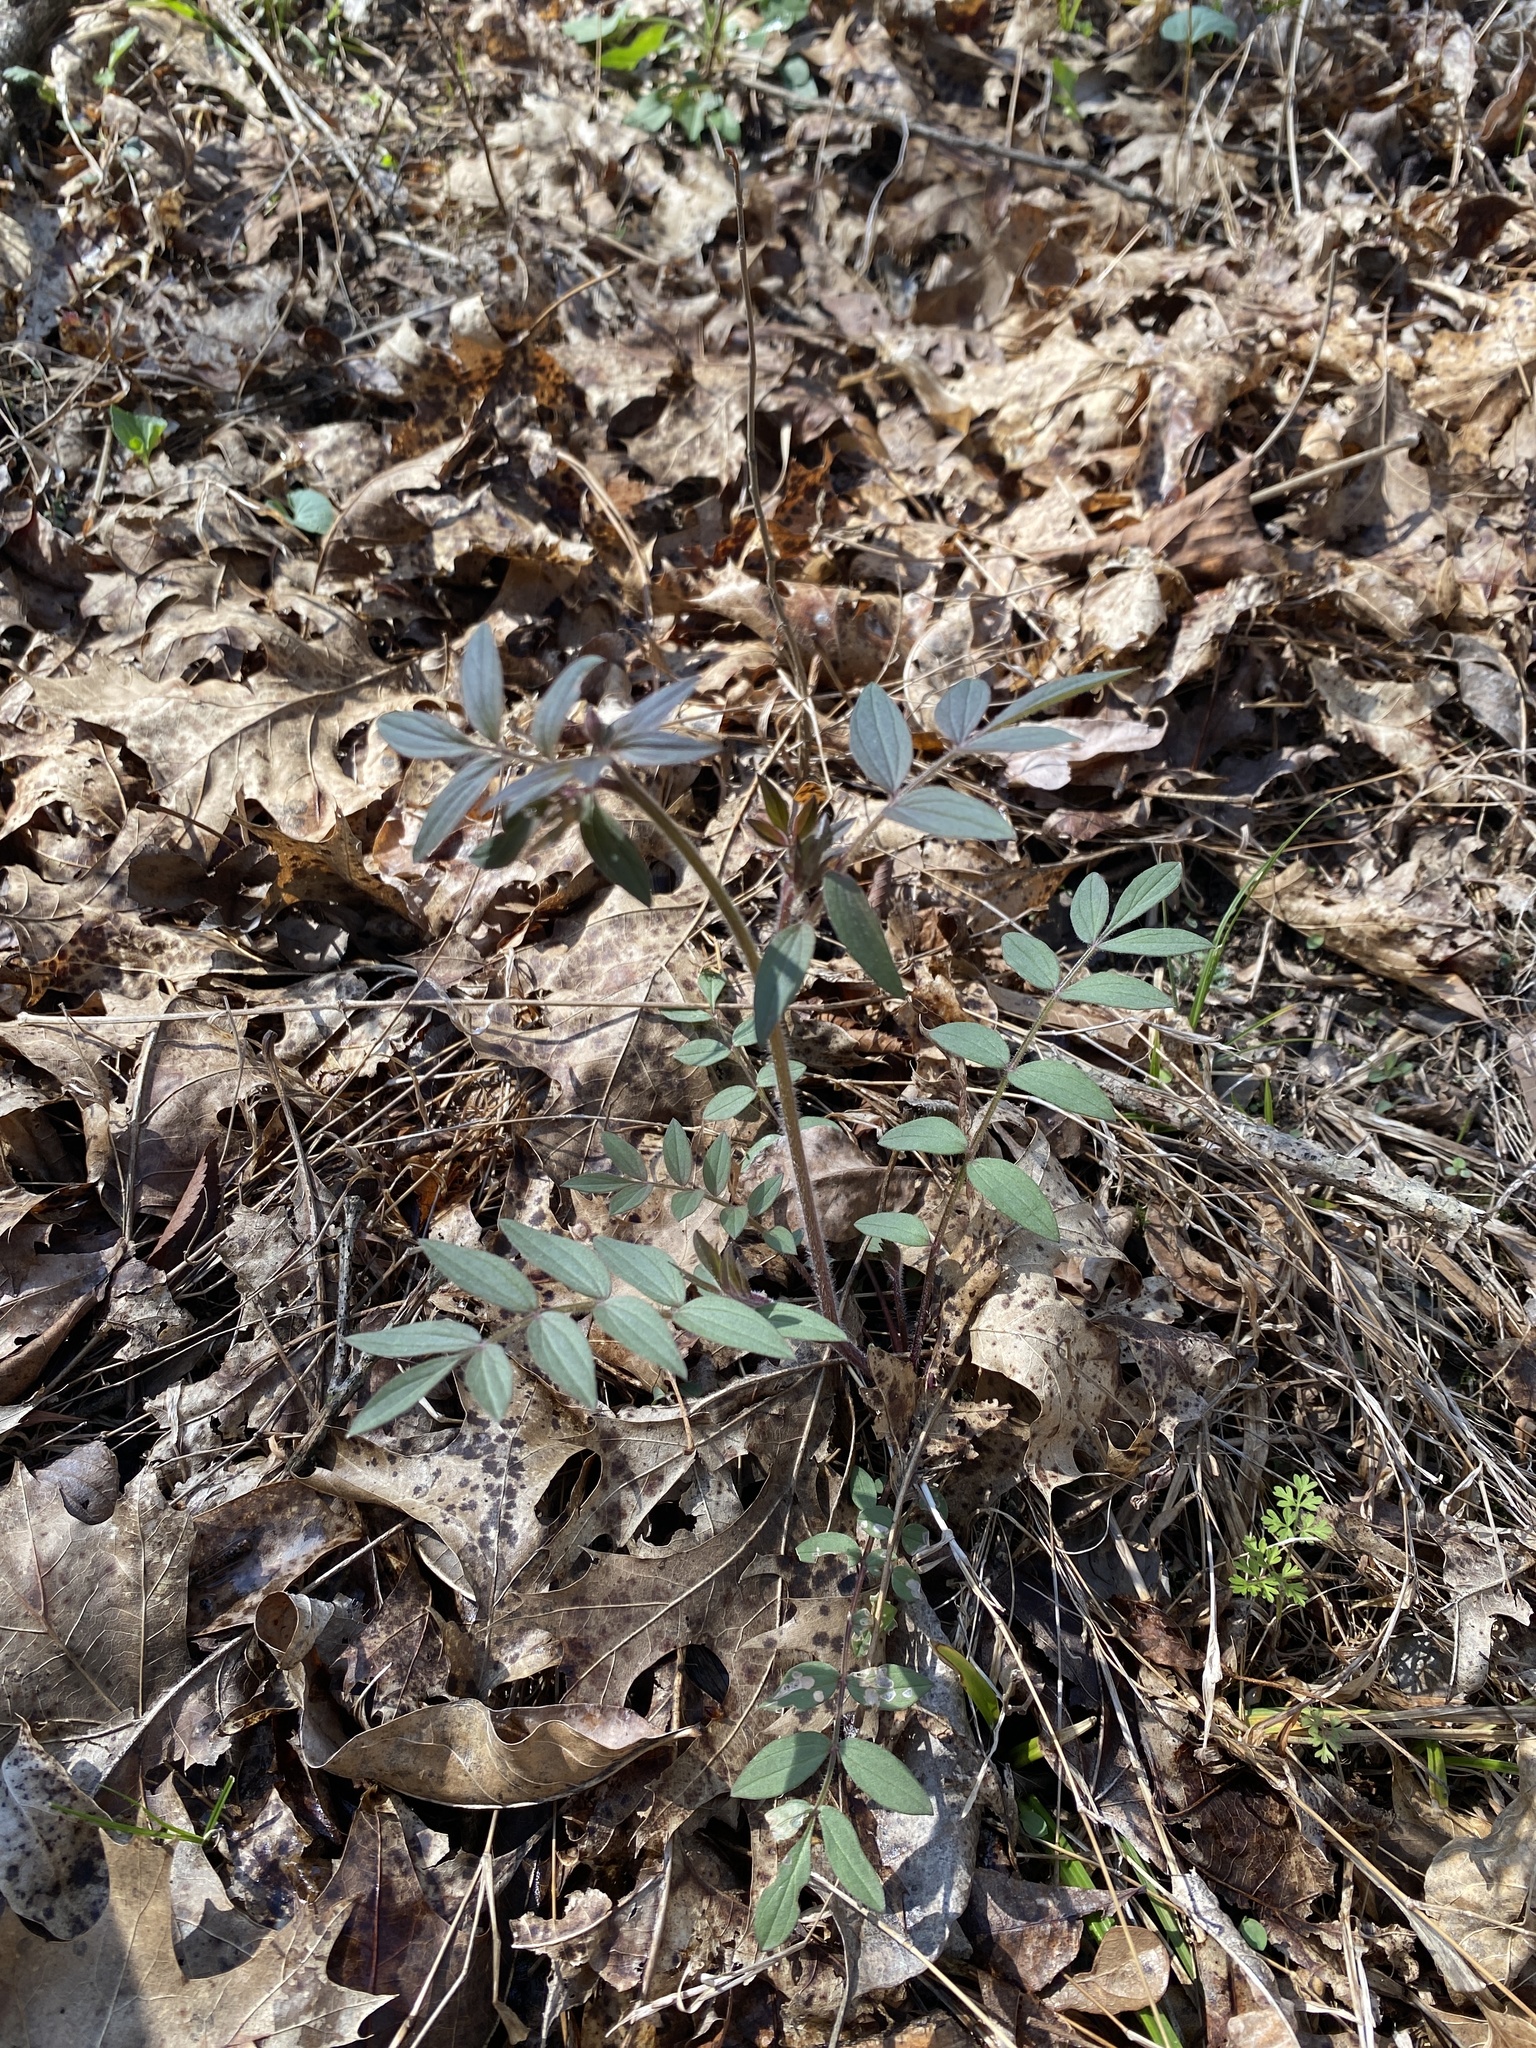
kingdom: Plantae
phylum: Tracheophyta
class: Magnoliopsida
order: Ericales
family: Polemoniaceae
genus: Polemonium
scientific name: Polemonium reptans
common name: Creeping jacob's-ladder
